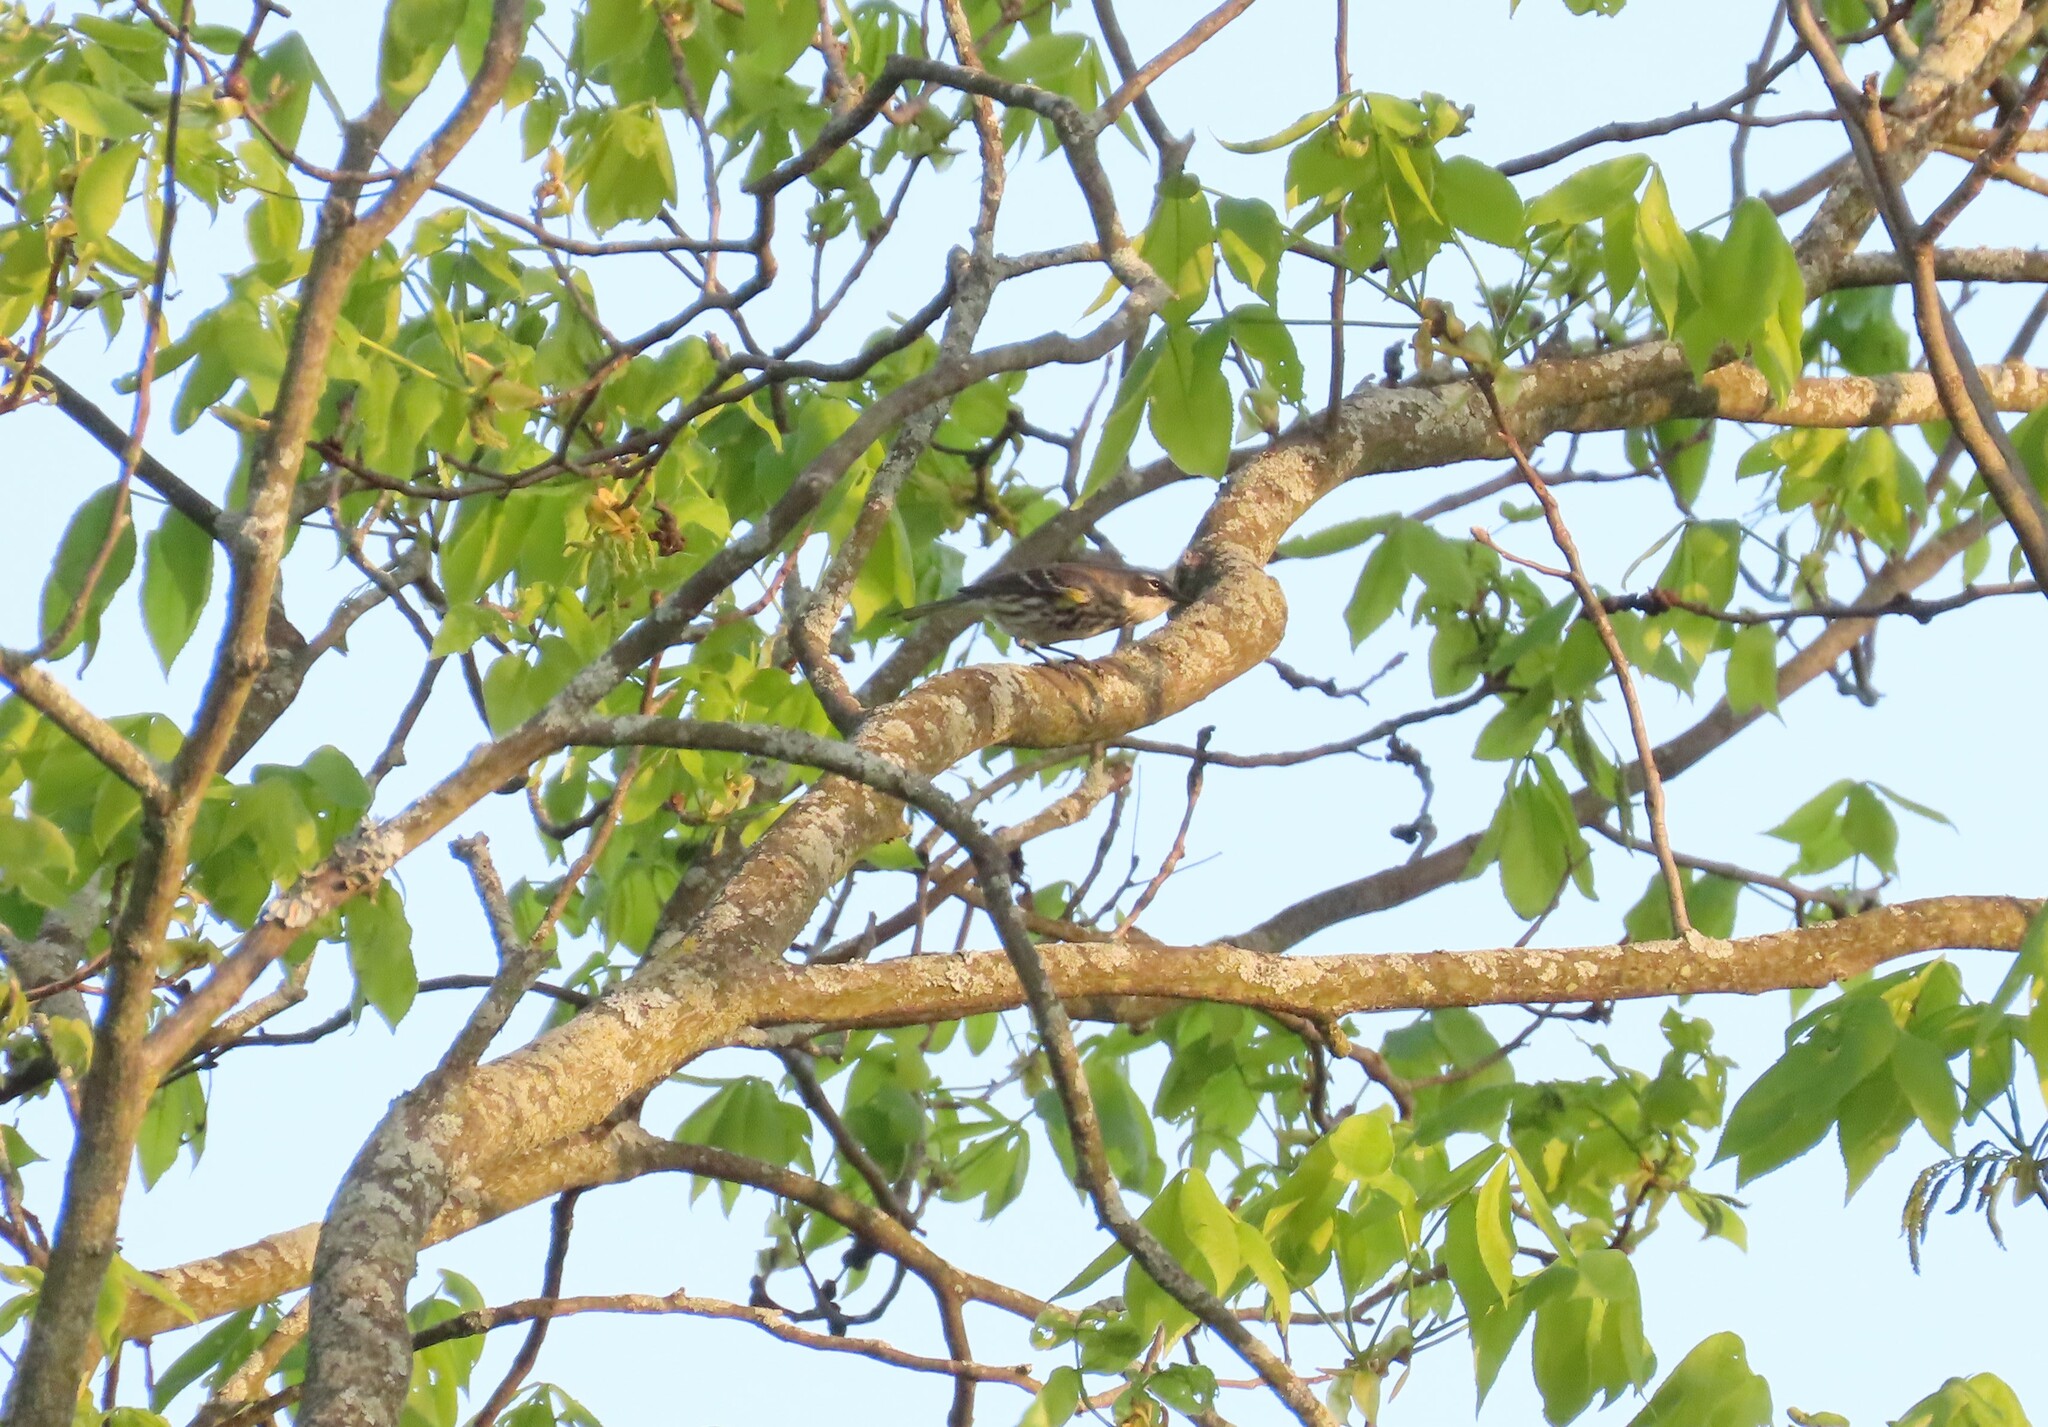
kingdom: Animalia
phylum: Chordata
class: Aves
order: Passeriformes
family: Parulidae
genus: Setophaga
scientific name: Setophaga coronata
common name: Myrtle warbler
